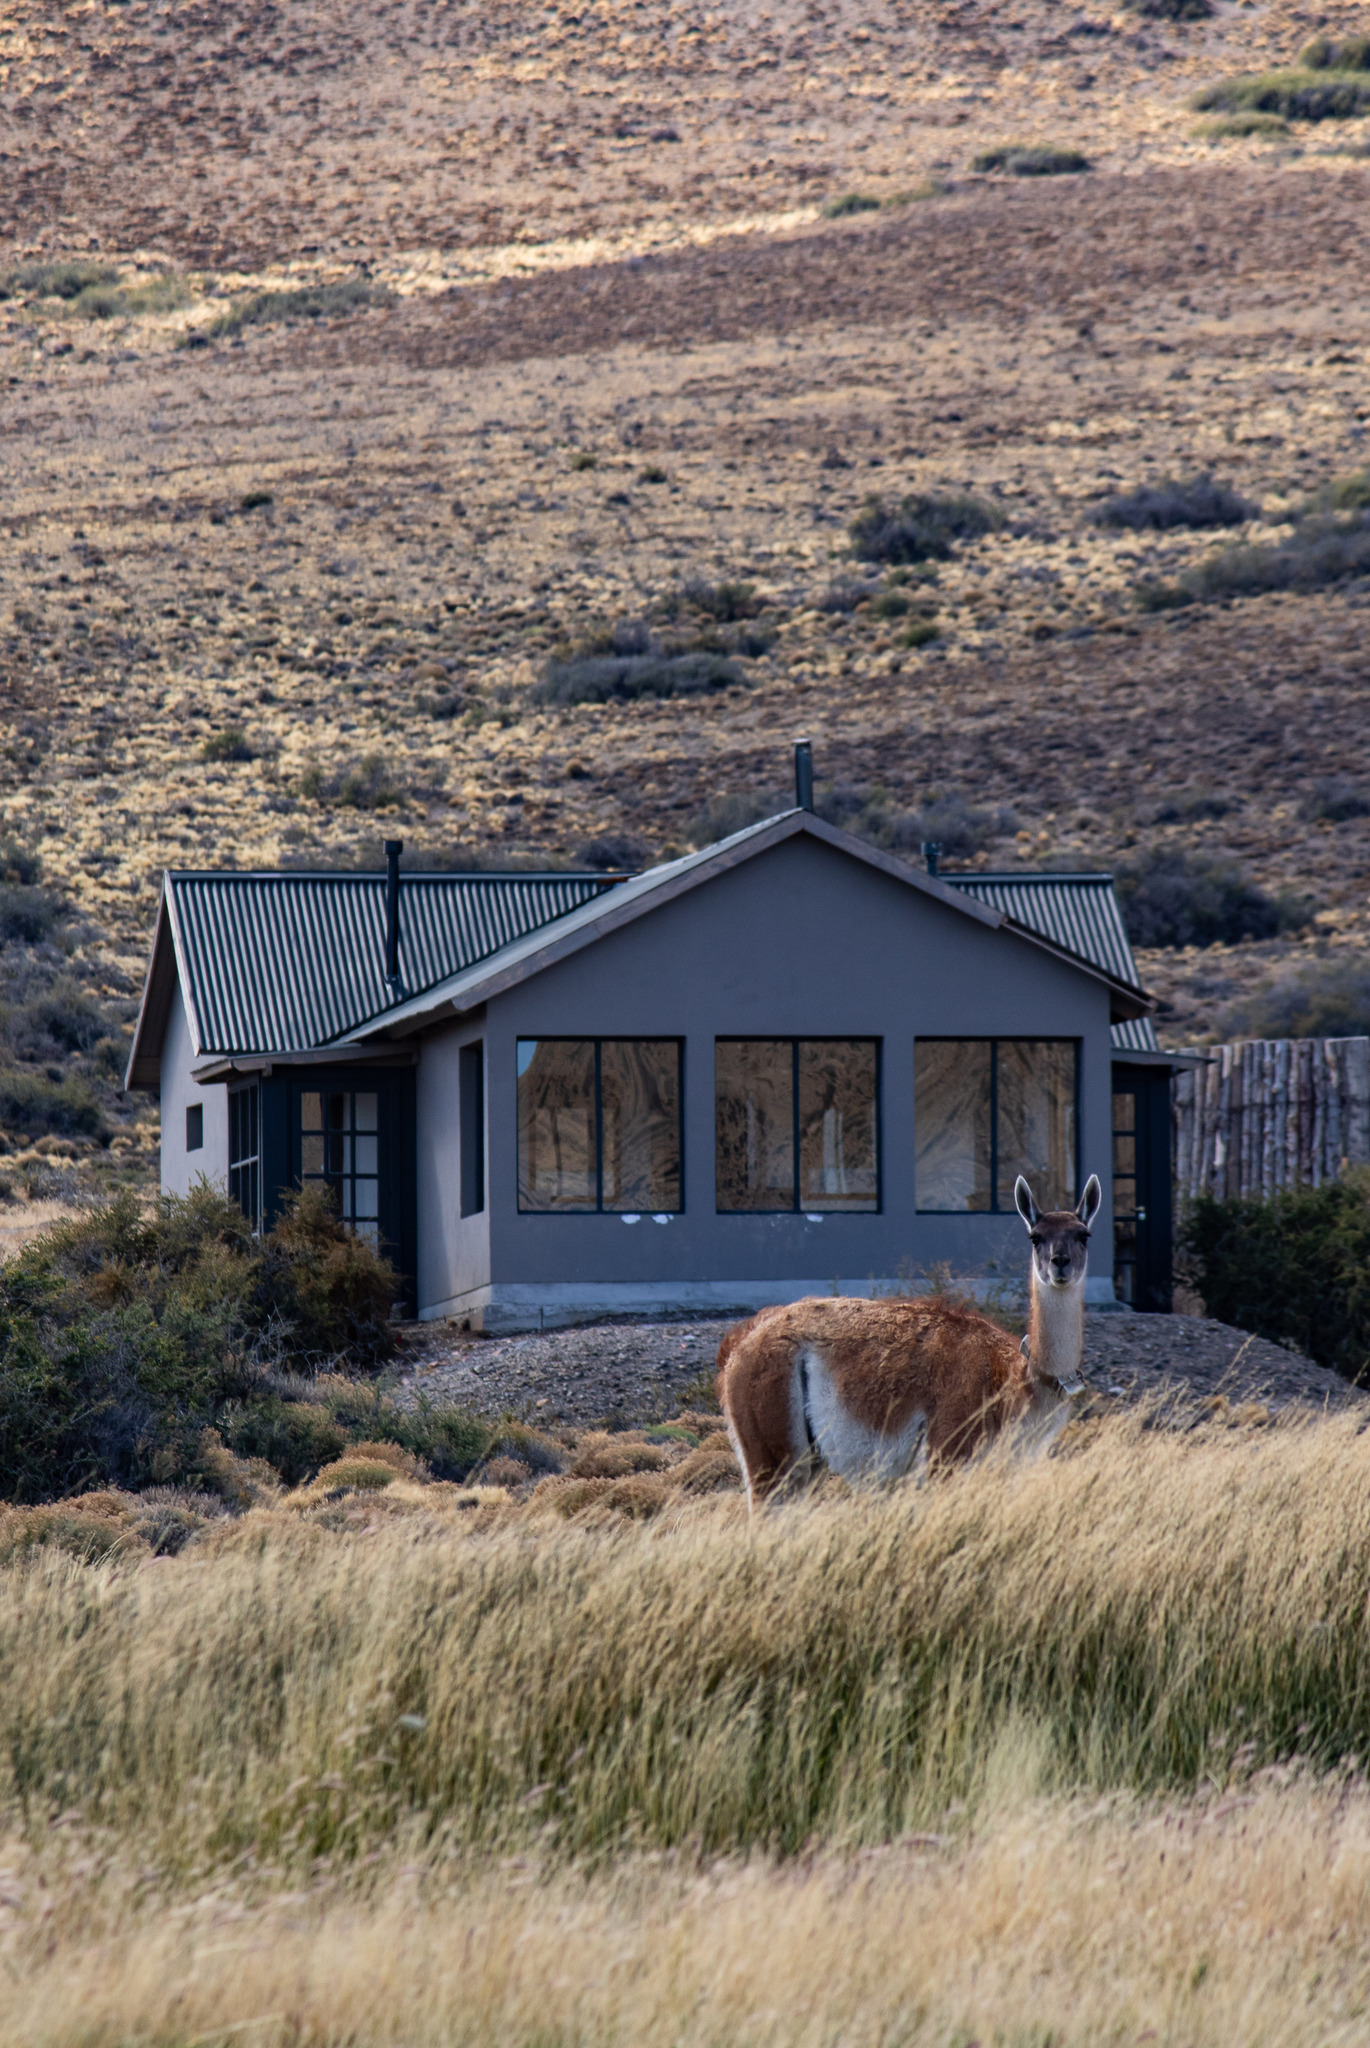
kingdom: Animalia
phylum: Chordata
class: Mammalia
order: Artiodactyla
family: Camelidae
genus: Lama
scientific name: Lama glama
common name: Llama
